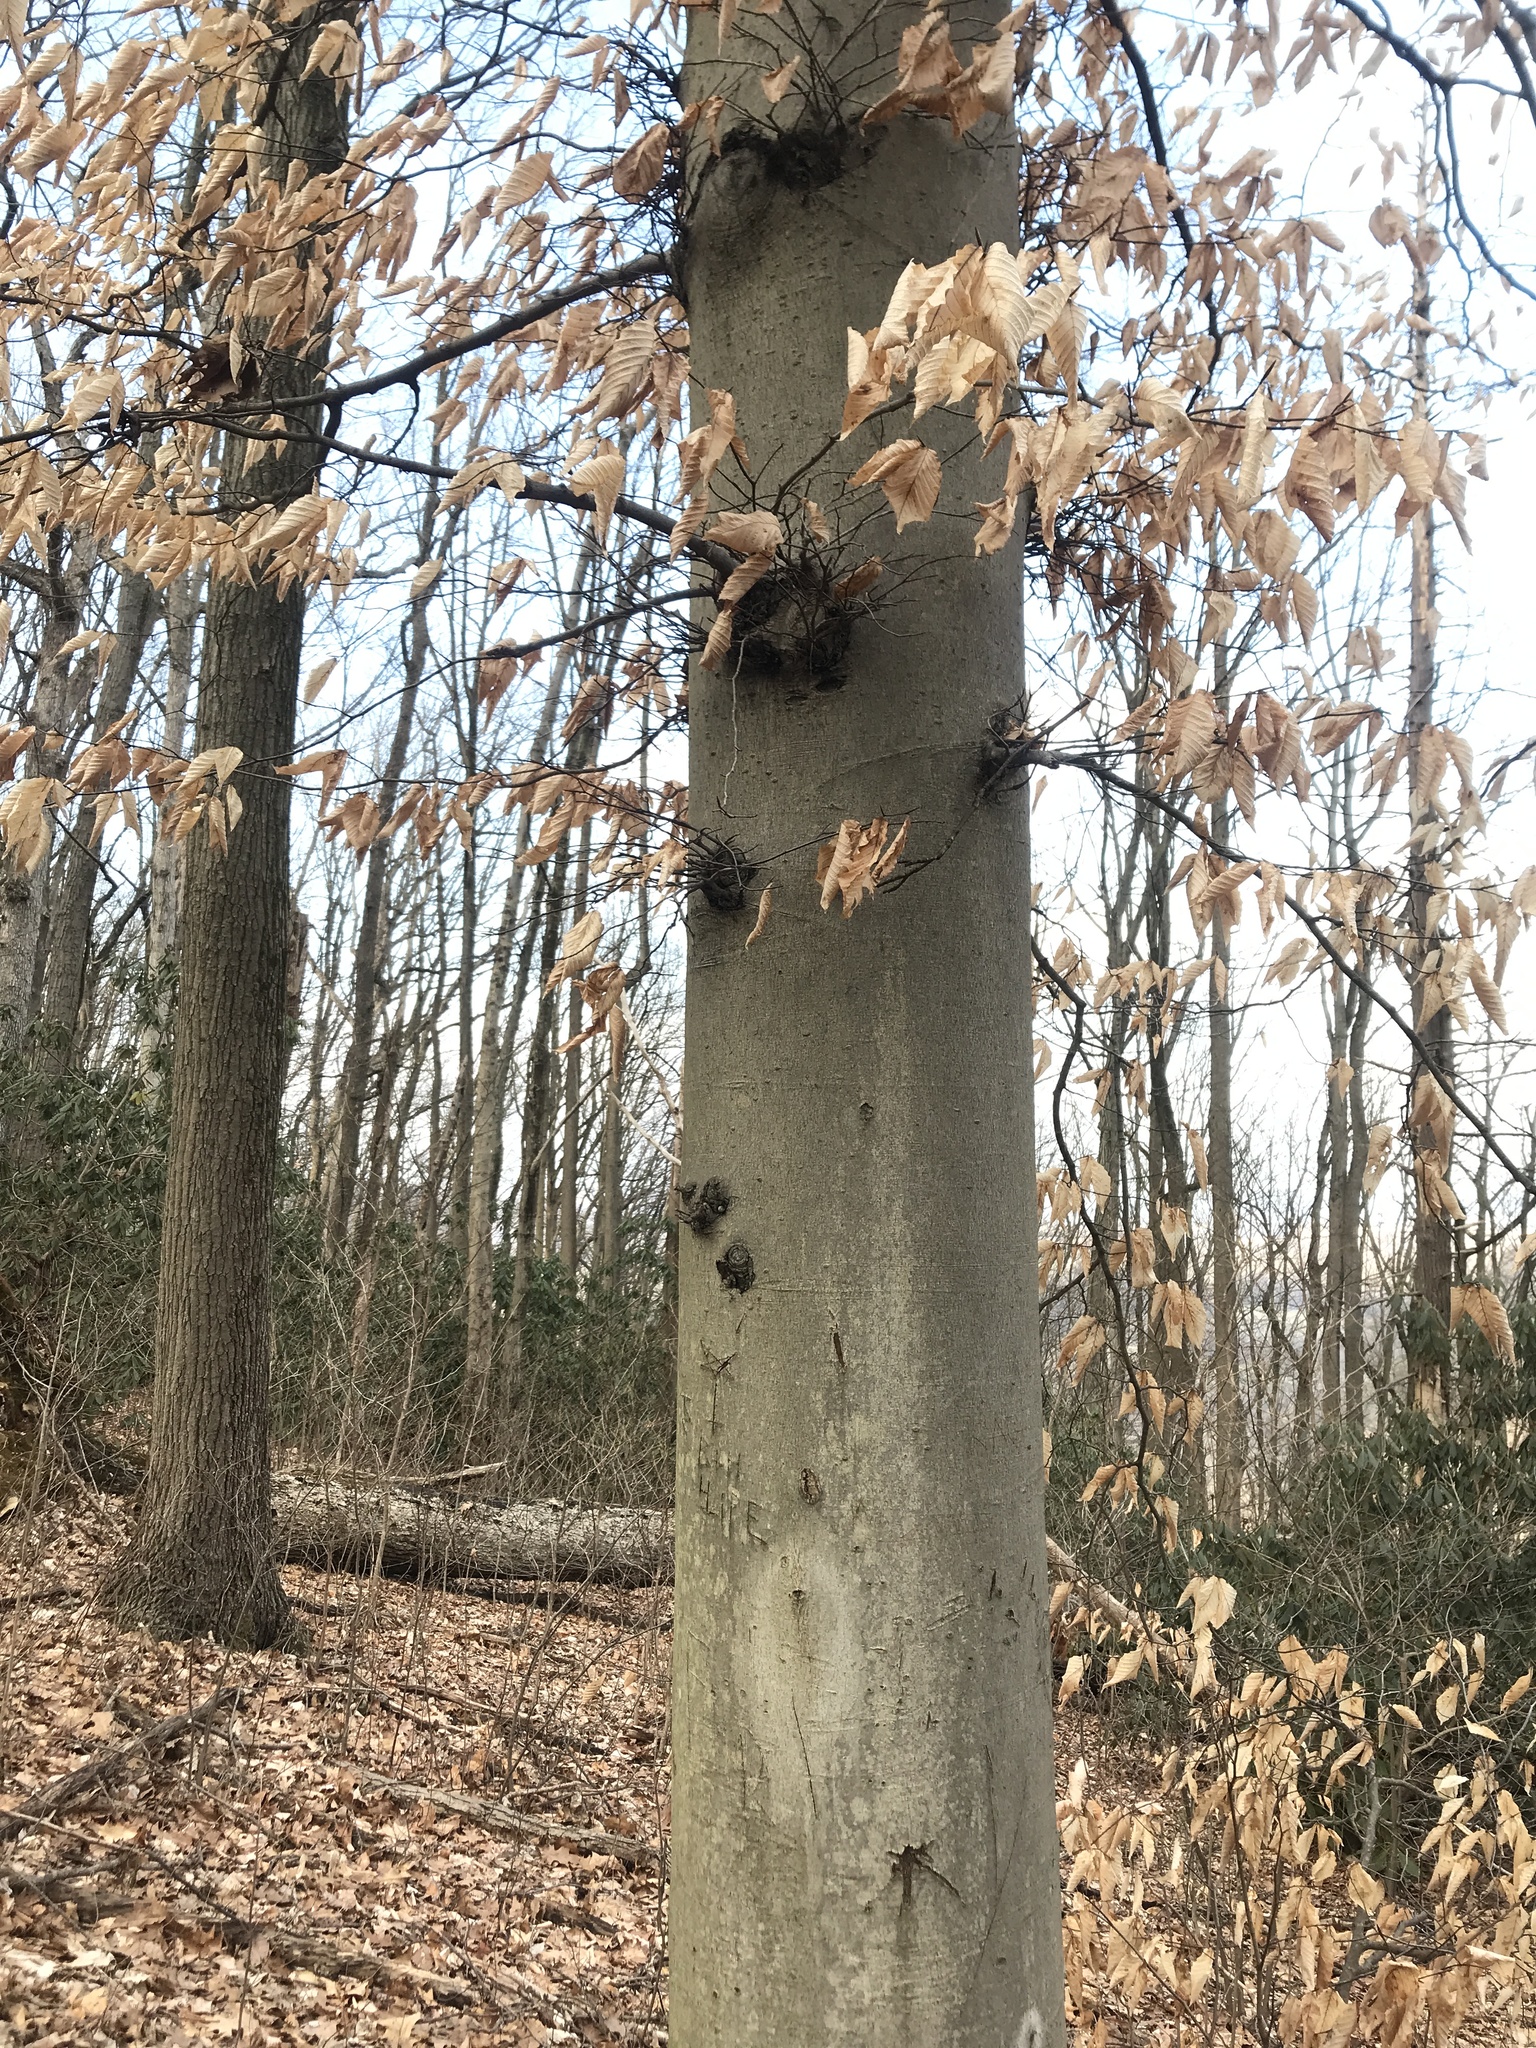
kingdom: Plantae
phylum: Tracheophyta
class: Magnoliopsida
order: Fagales
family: Fagaceae
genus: Fagus
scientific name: Fagus grandifolia
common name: American beech
